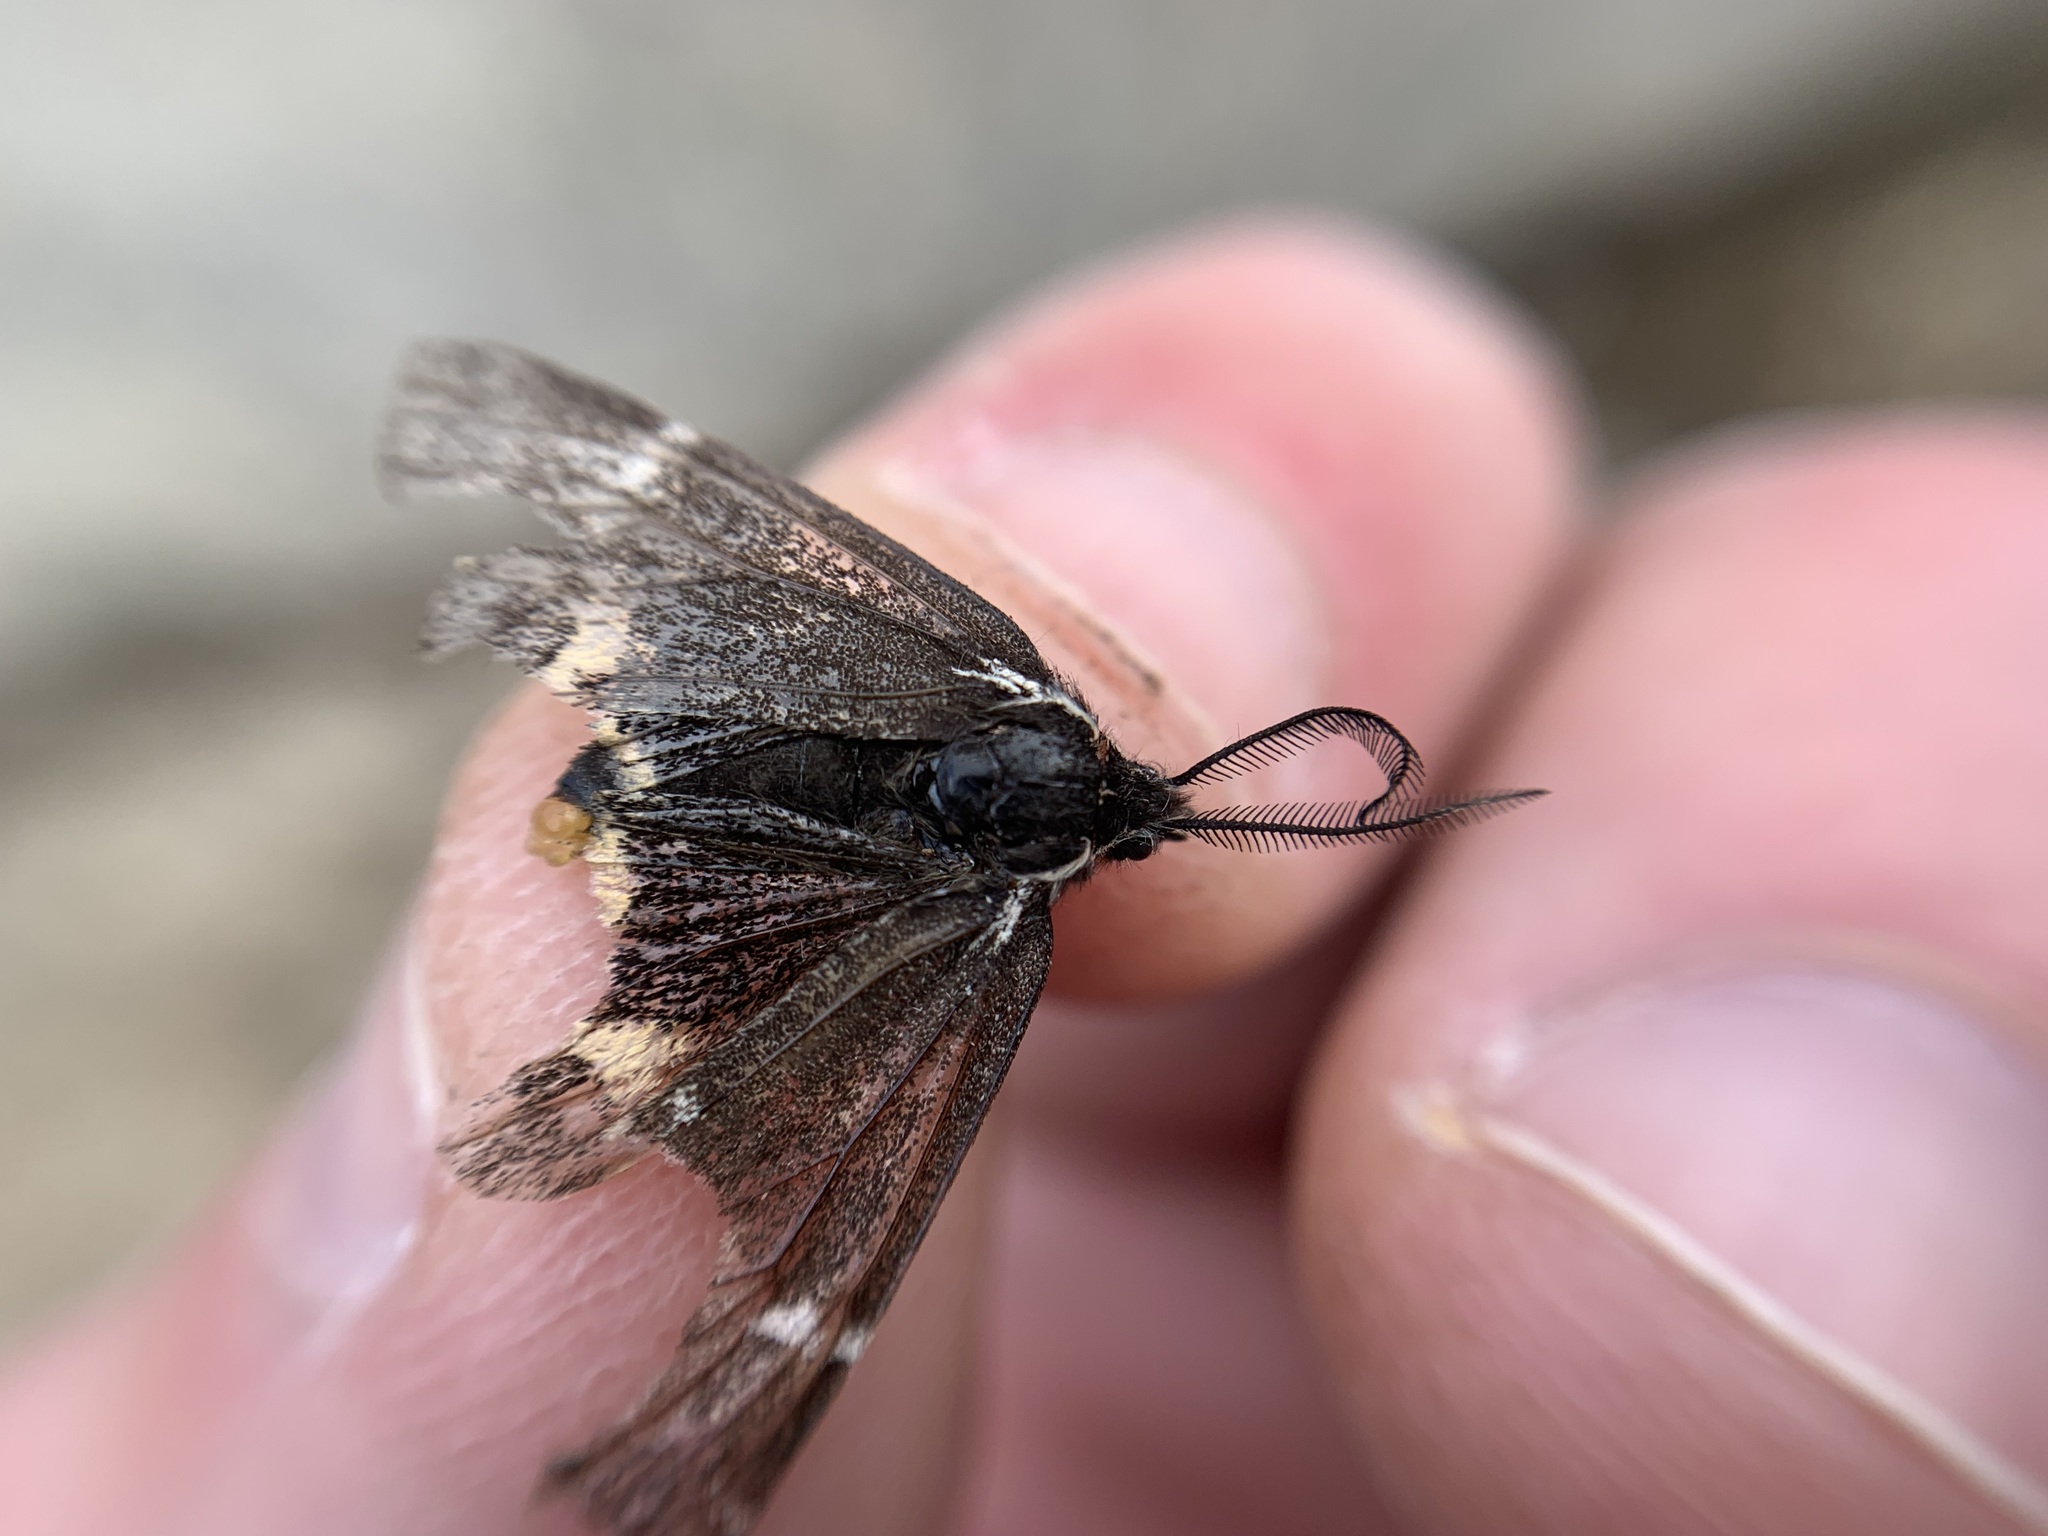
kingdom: Animalia
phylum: Arthropoda
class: Insecta
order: Lepidoptera
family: Erebidae
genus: Leptarctia
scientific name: Leptarctia californiae
